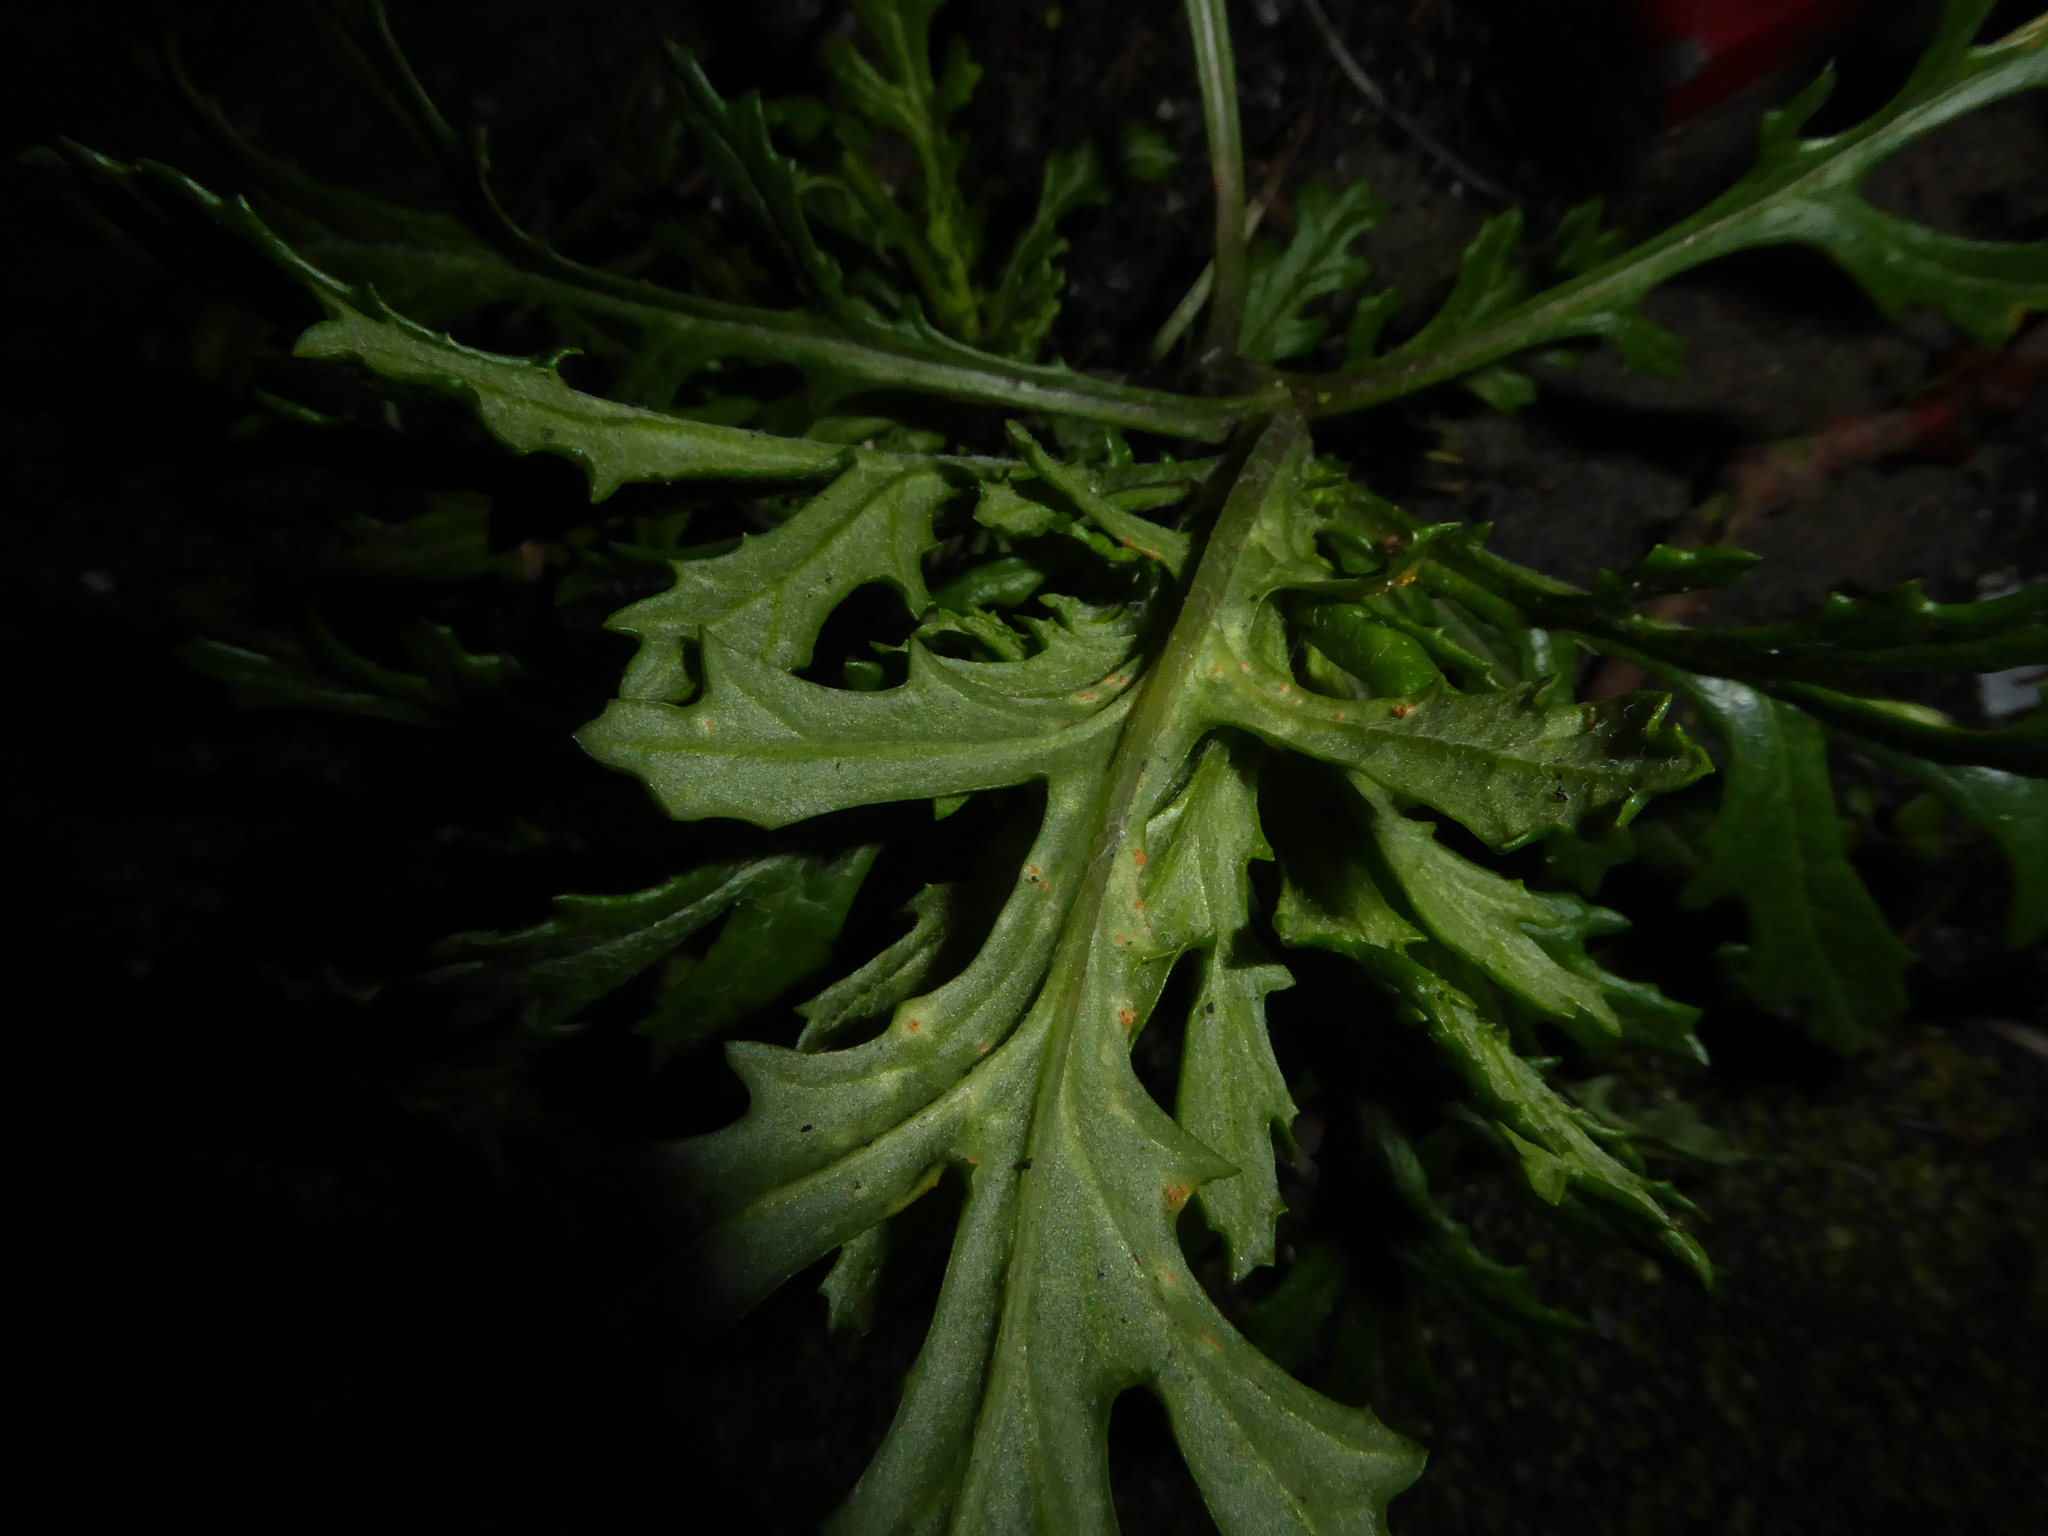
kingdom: Fungi
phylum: Basidiomycota
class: Pucciniomycetes
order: Pucciniales
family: Pucciniaceae
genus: Puccinia
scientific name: Puccinia lagenophorae
